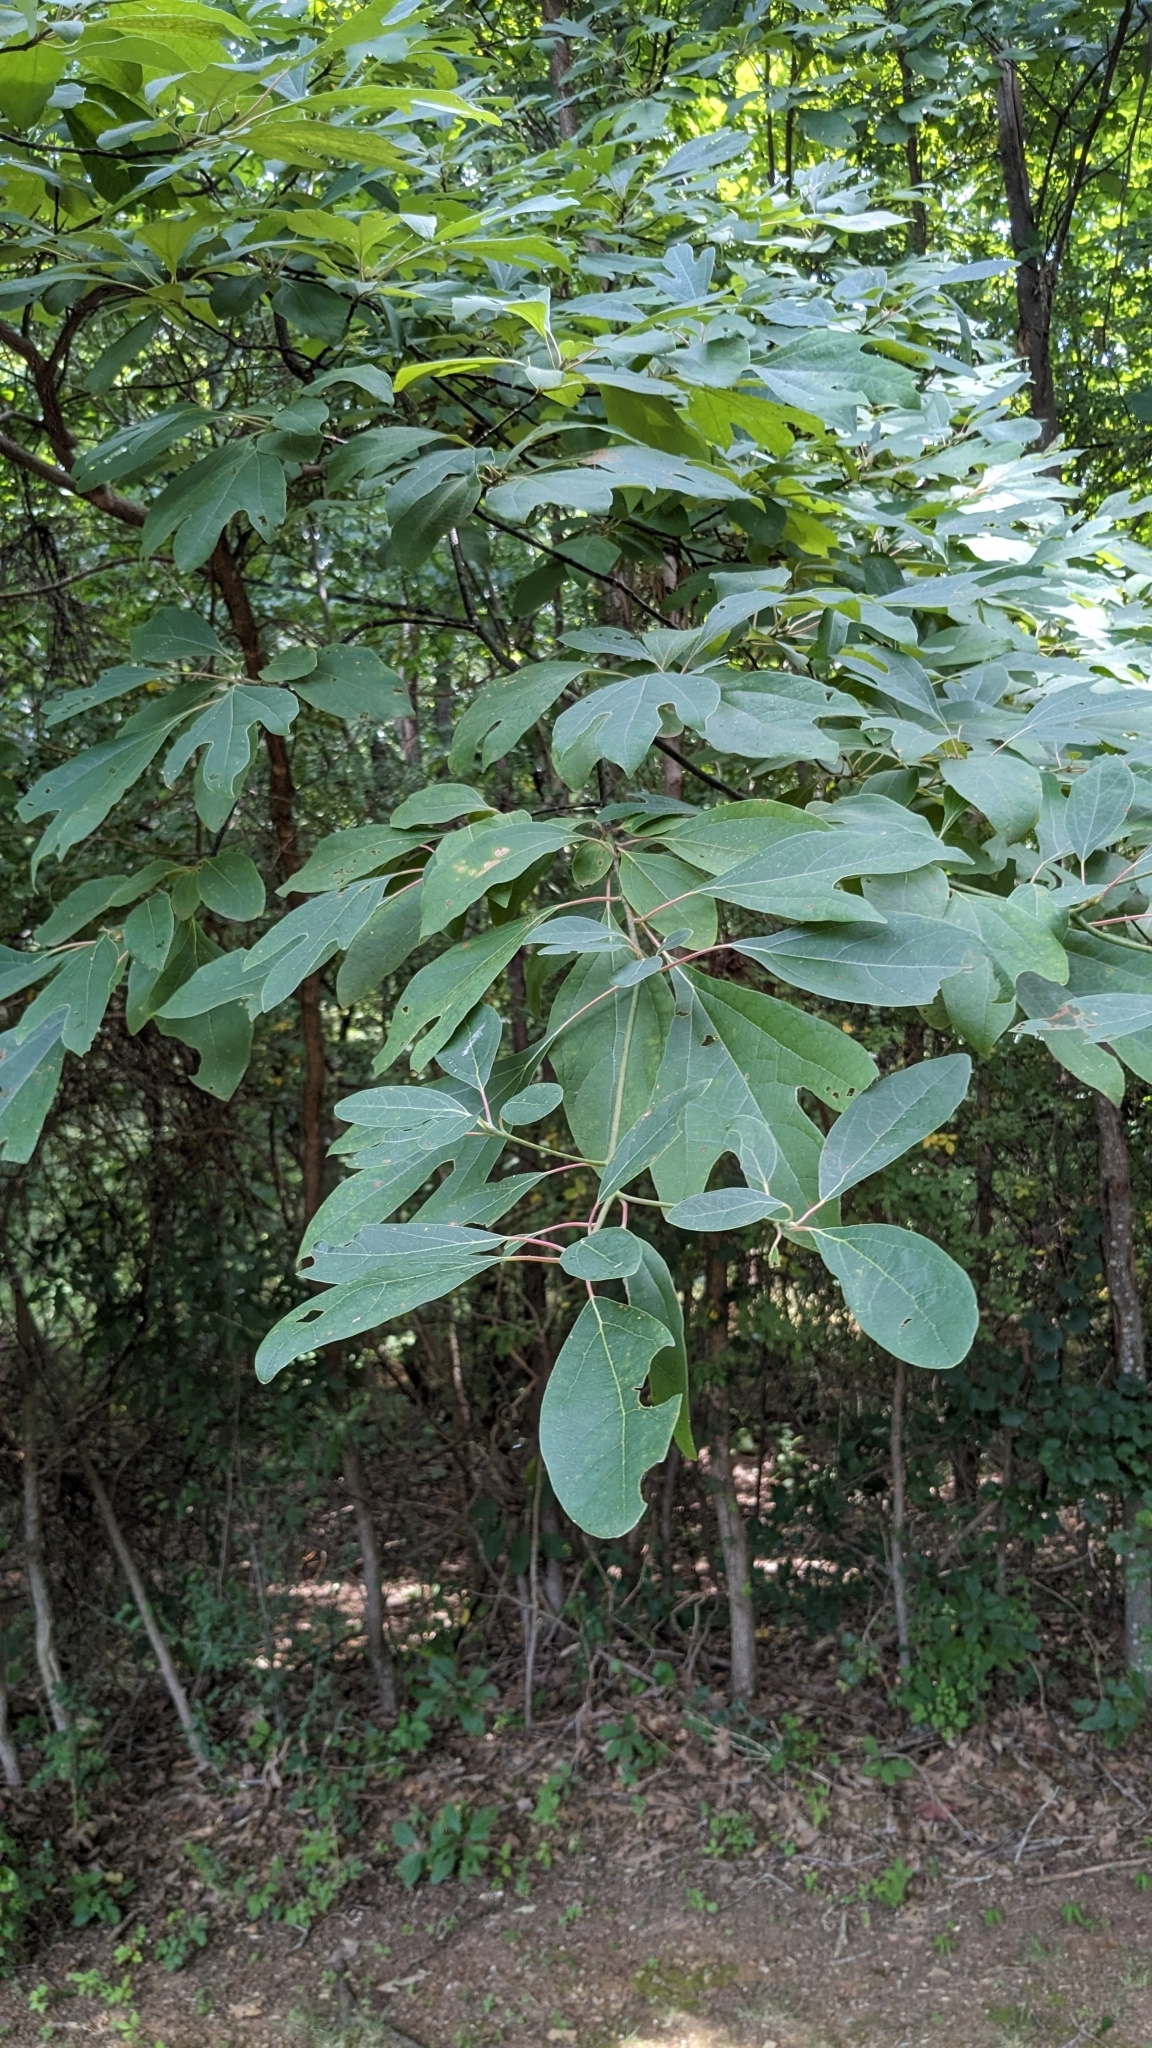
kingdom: Plantae
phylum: Tracheophyta
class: Magnoliopsida
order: Laurales
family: Lauraceae
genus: Sassafras
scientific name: Sassafras albidum
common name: Sassafras
